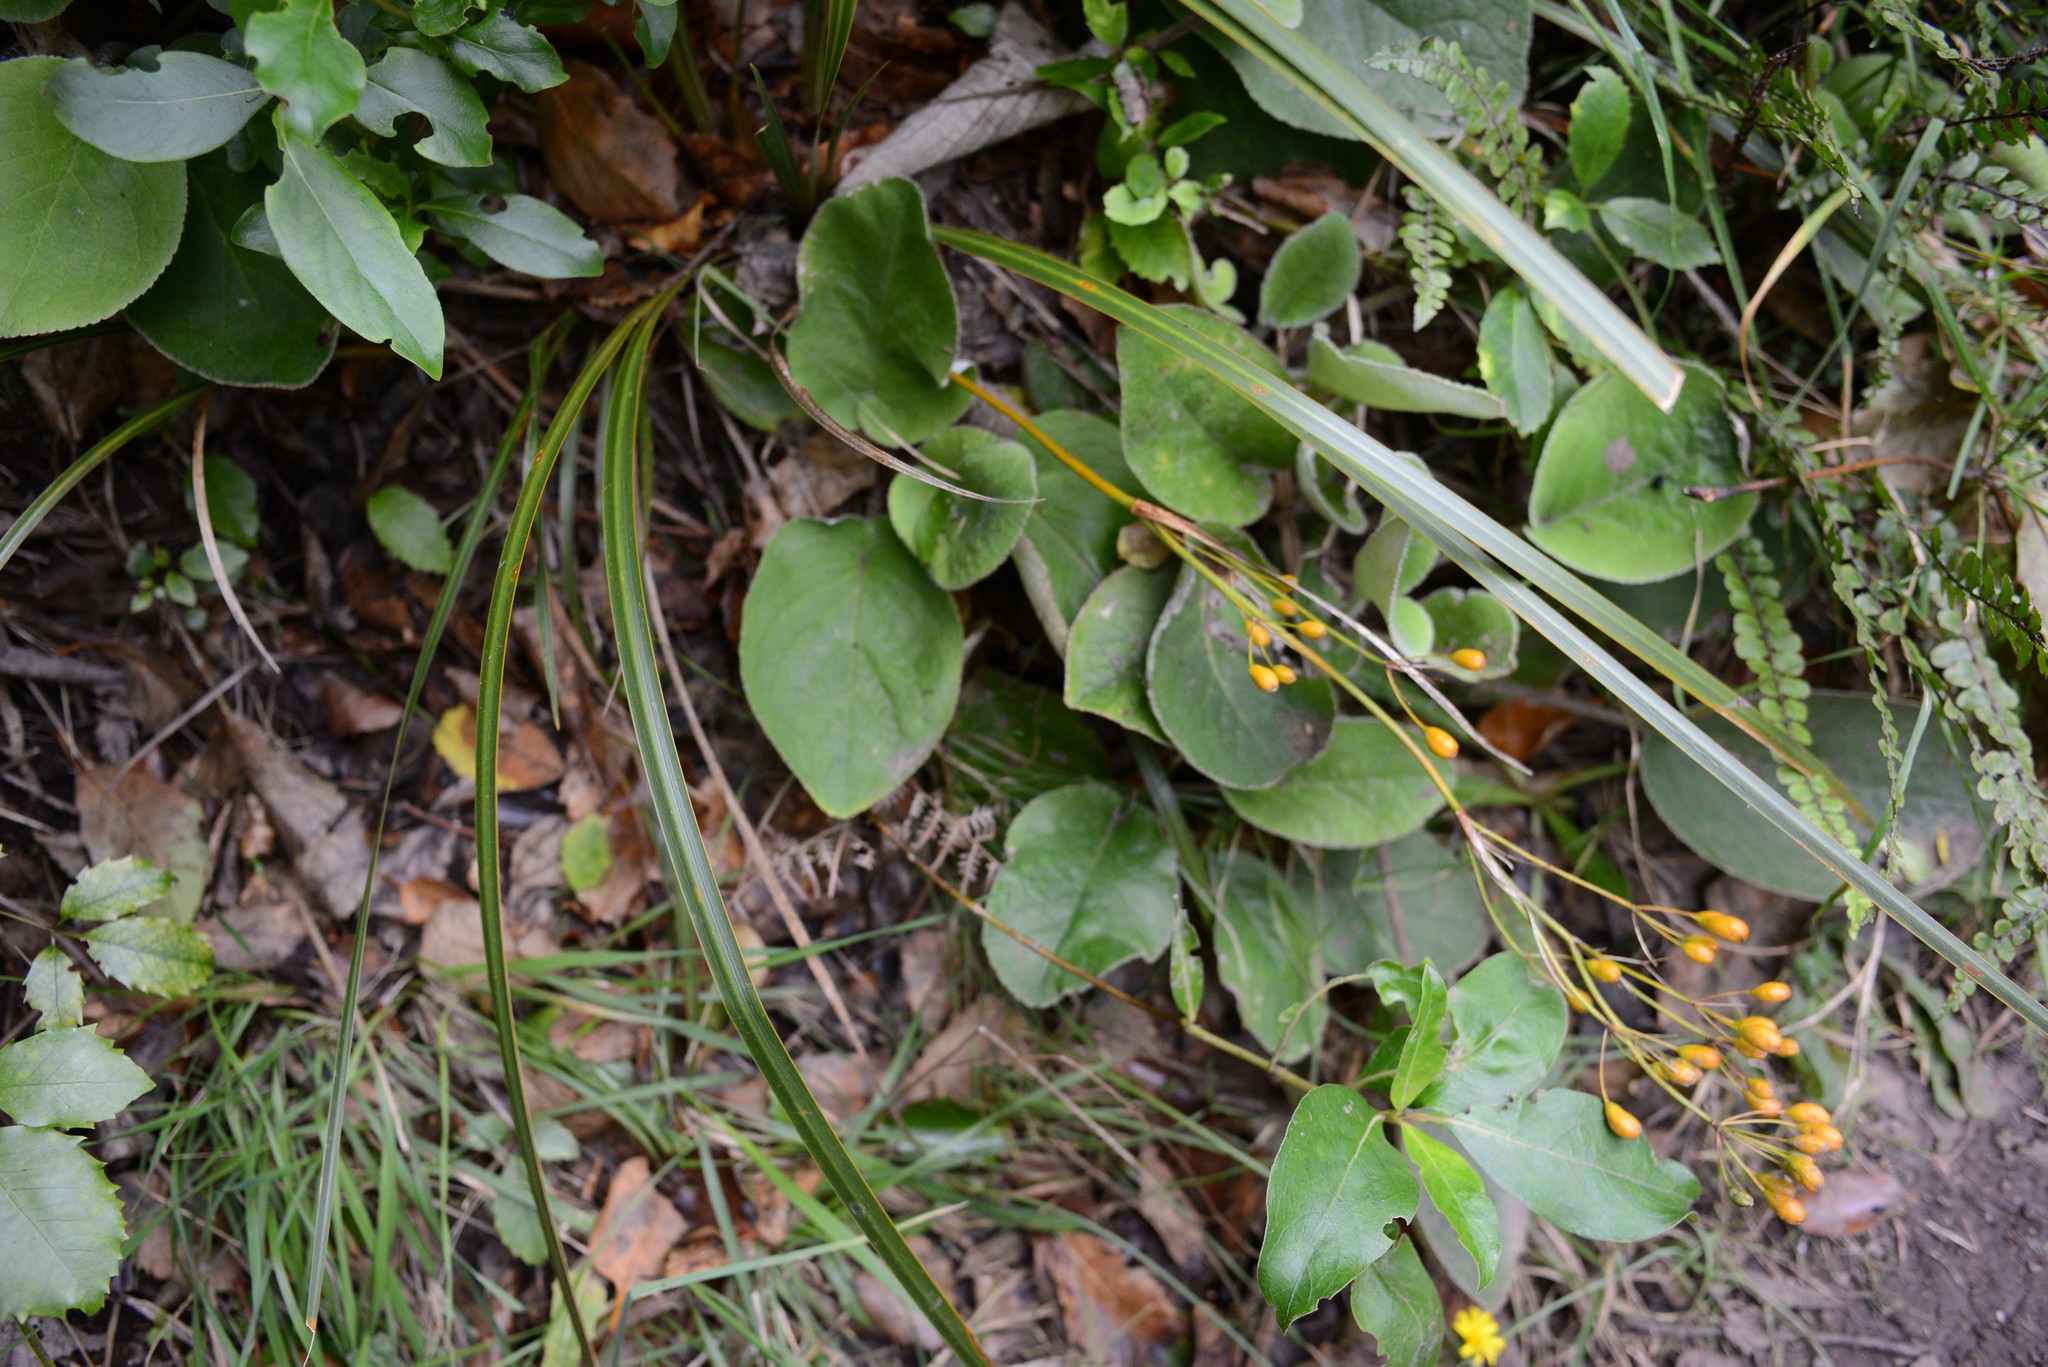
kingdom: Plantae
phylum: Tracheophyta
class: Liliopsida
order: Asparagales
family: Iridaceae
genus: Libertia
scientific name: Libertia ixioides
